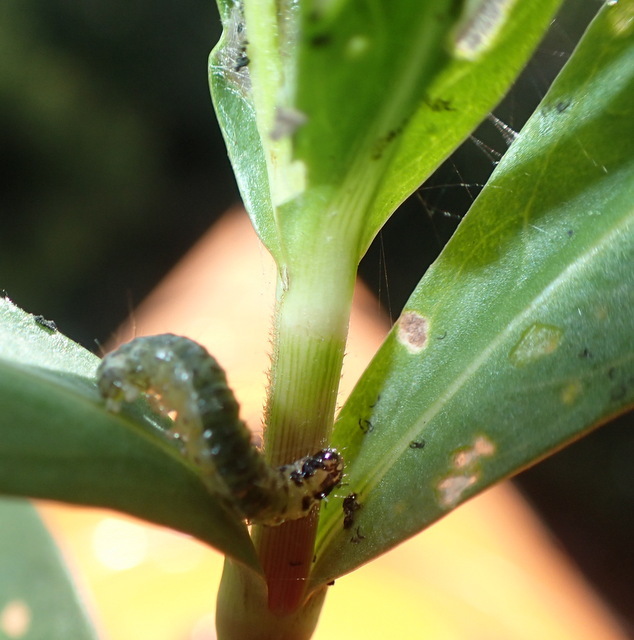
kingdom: Animalia
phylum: Arthropoda
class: Insecta
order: Coleoptera
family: Chrysomelidae
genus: Agasicles
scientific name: Agasicles hygrophila
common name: Alligatorweed flea beetle
